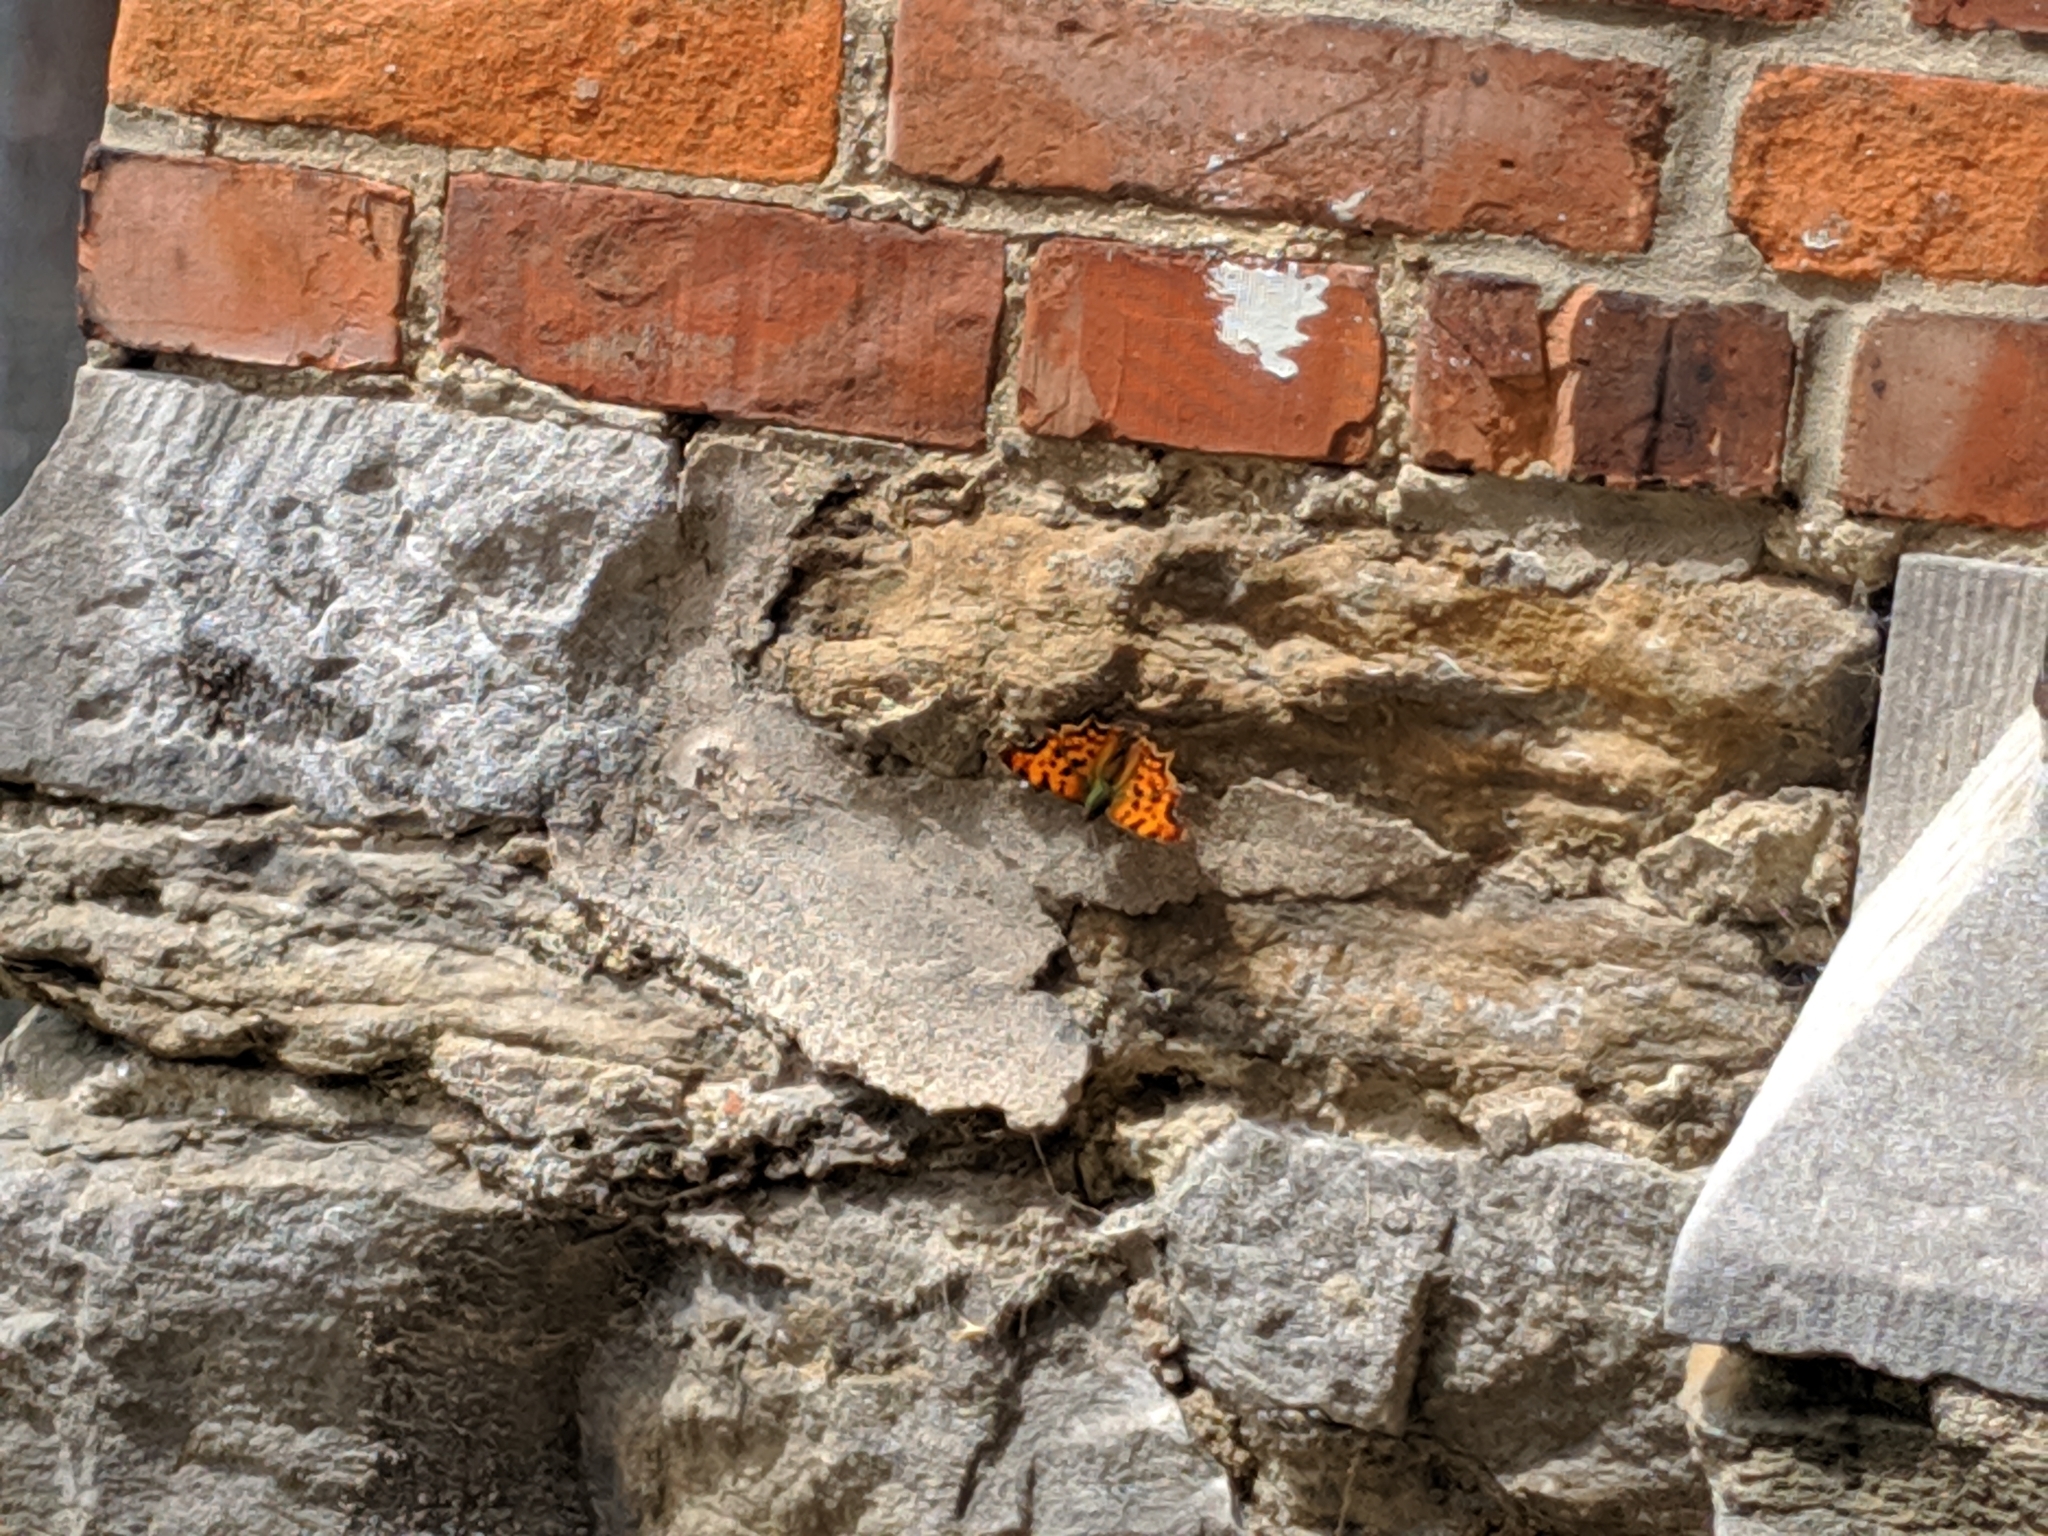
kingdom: Animalia
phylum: Arthropoda
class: Insecta
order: Lepidoptera
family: Nymphalidae
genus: Polygonia
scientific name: Polygonia c-album
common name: Comma
